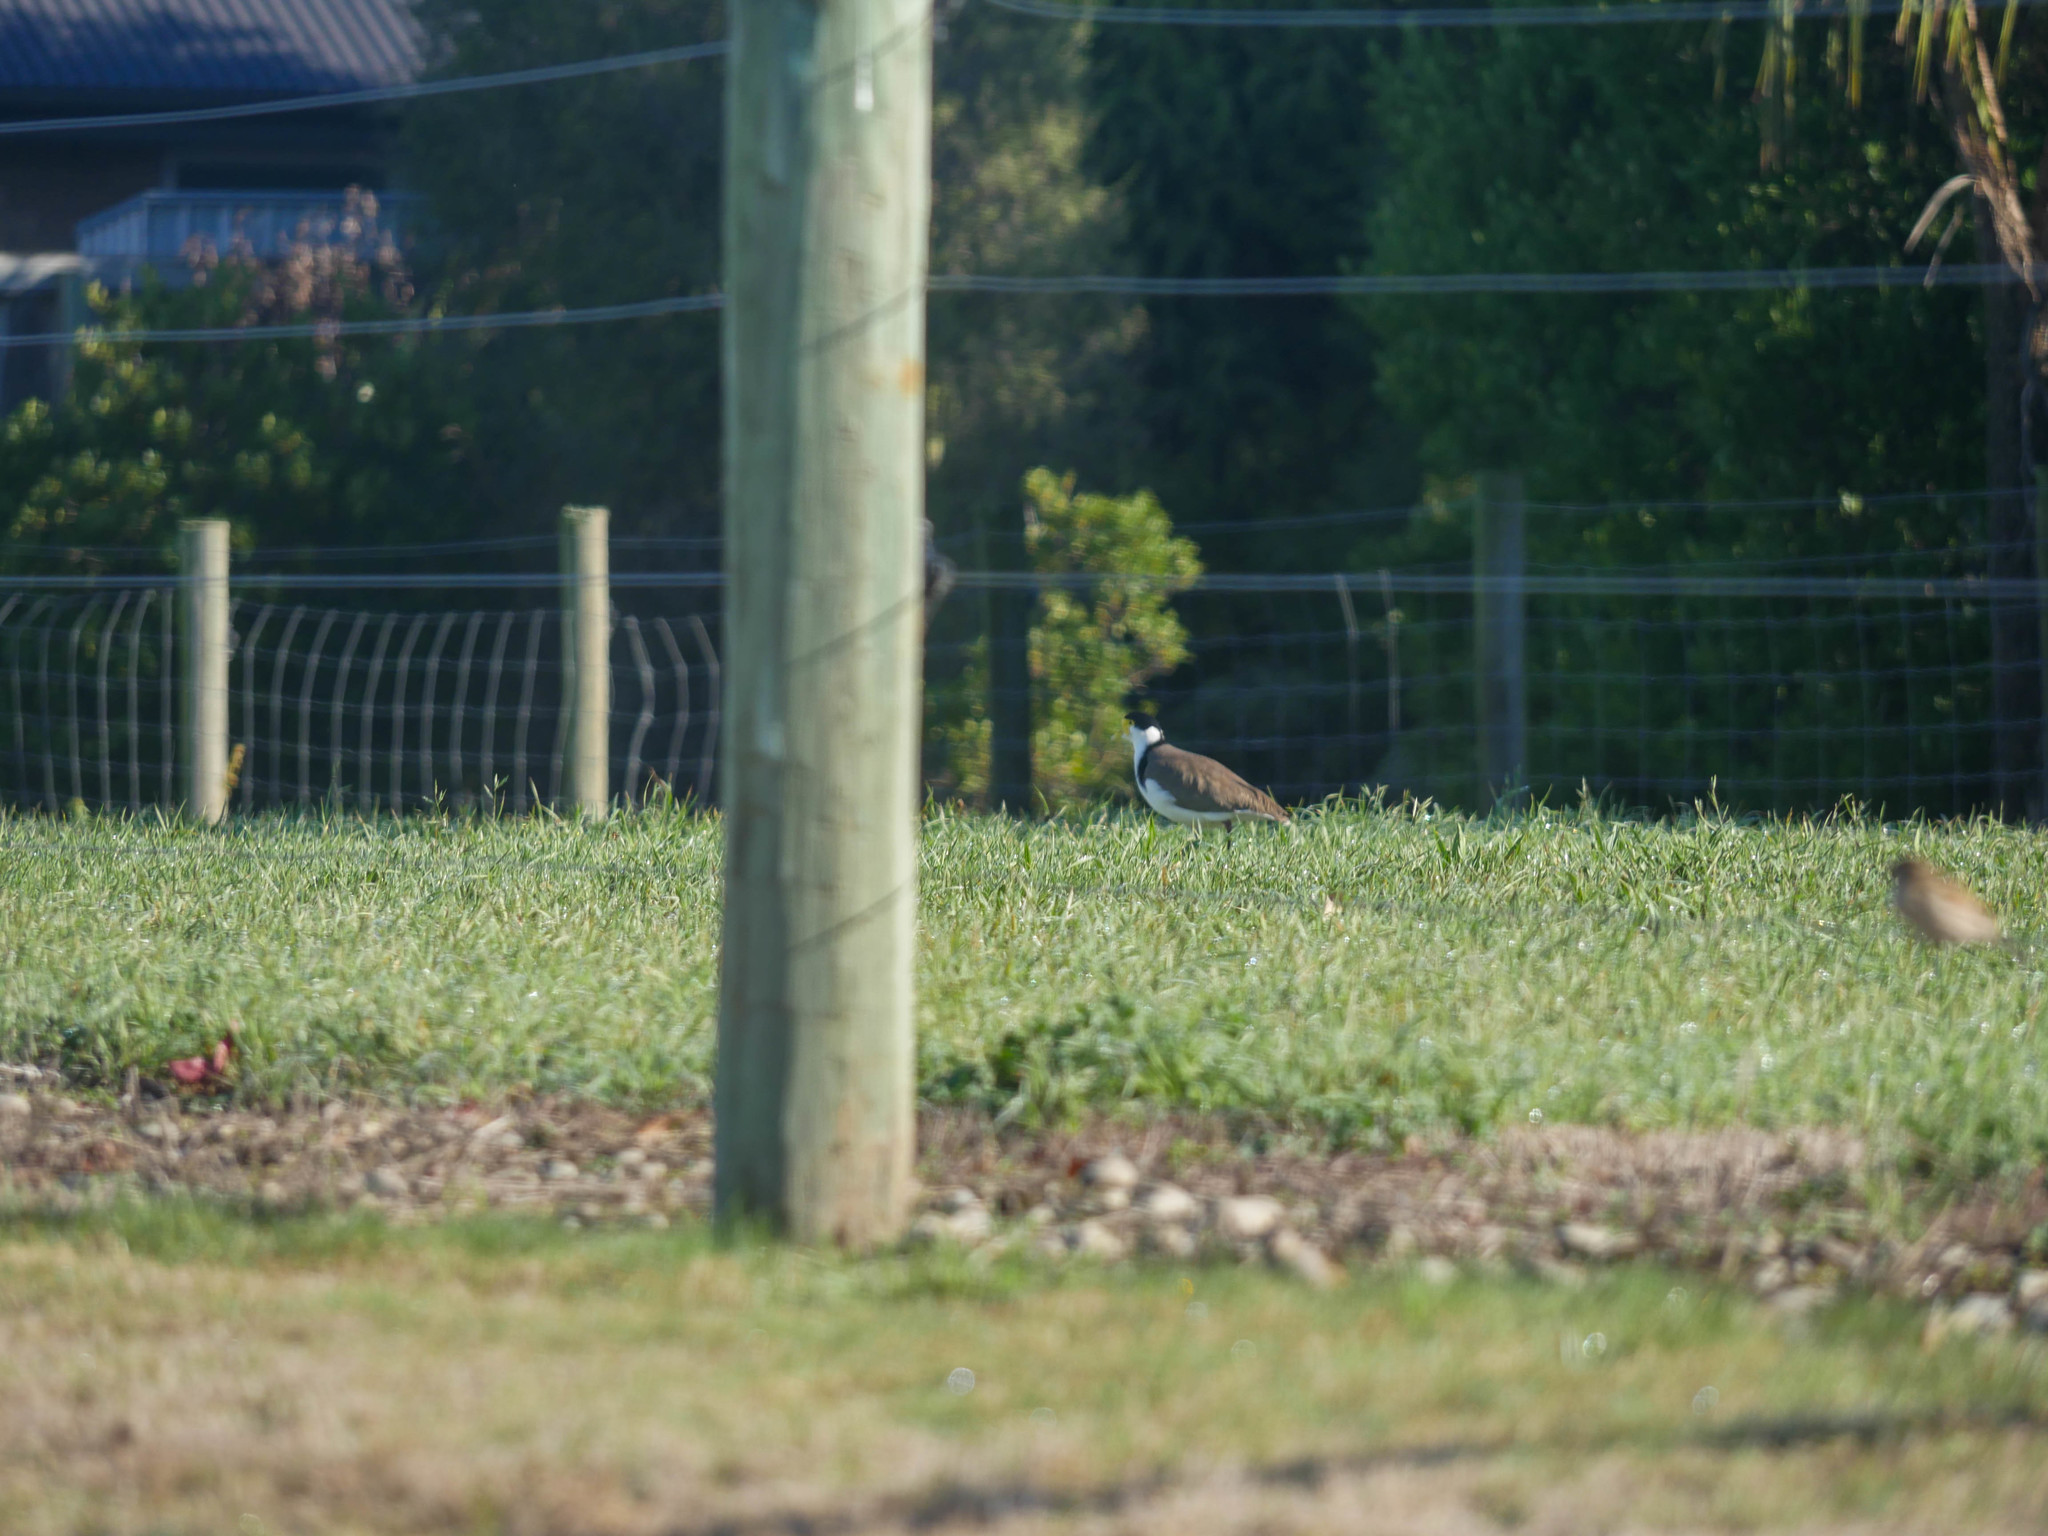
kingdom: Animalia
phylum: Chordata
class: Aves
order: Charadriiformes
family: Charadriidae
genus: Vanellus
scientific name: Vanellus miles
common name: Masked lapwing
